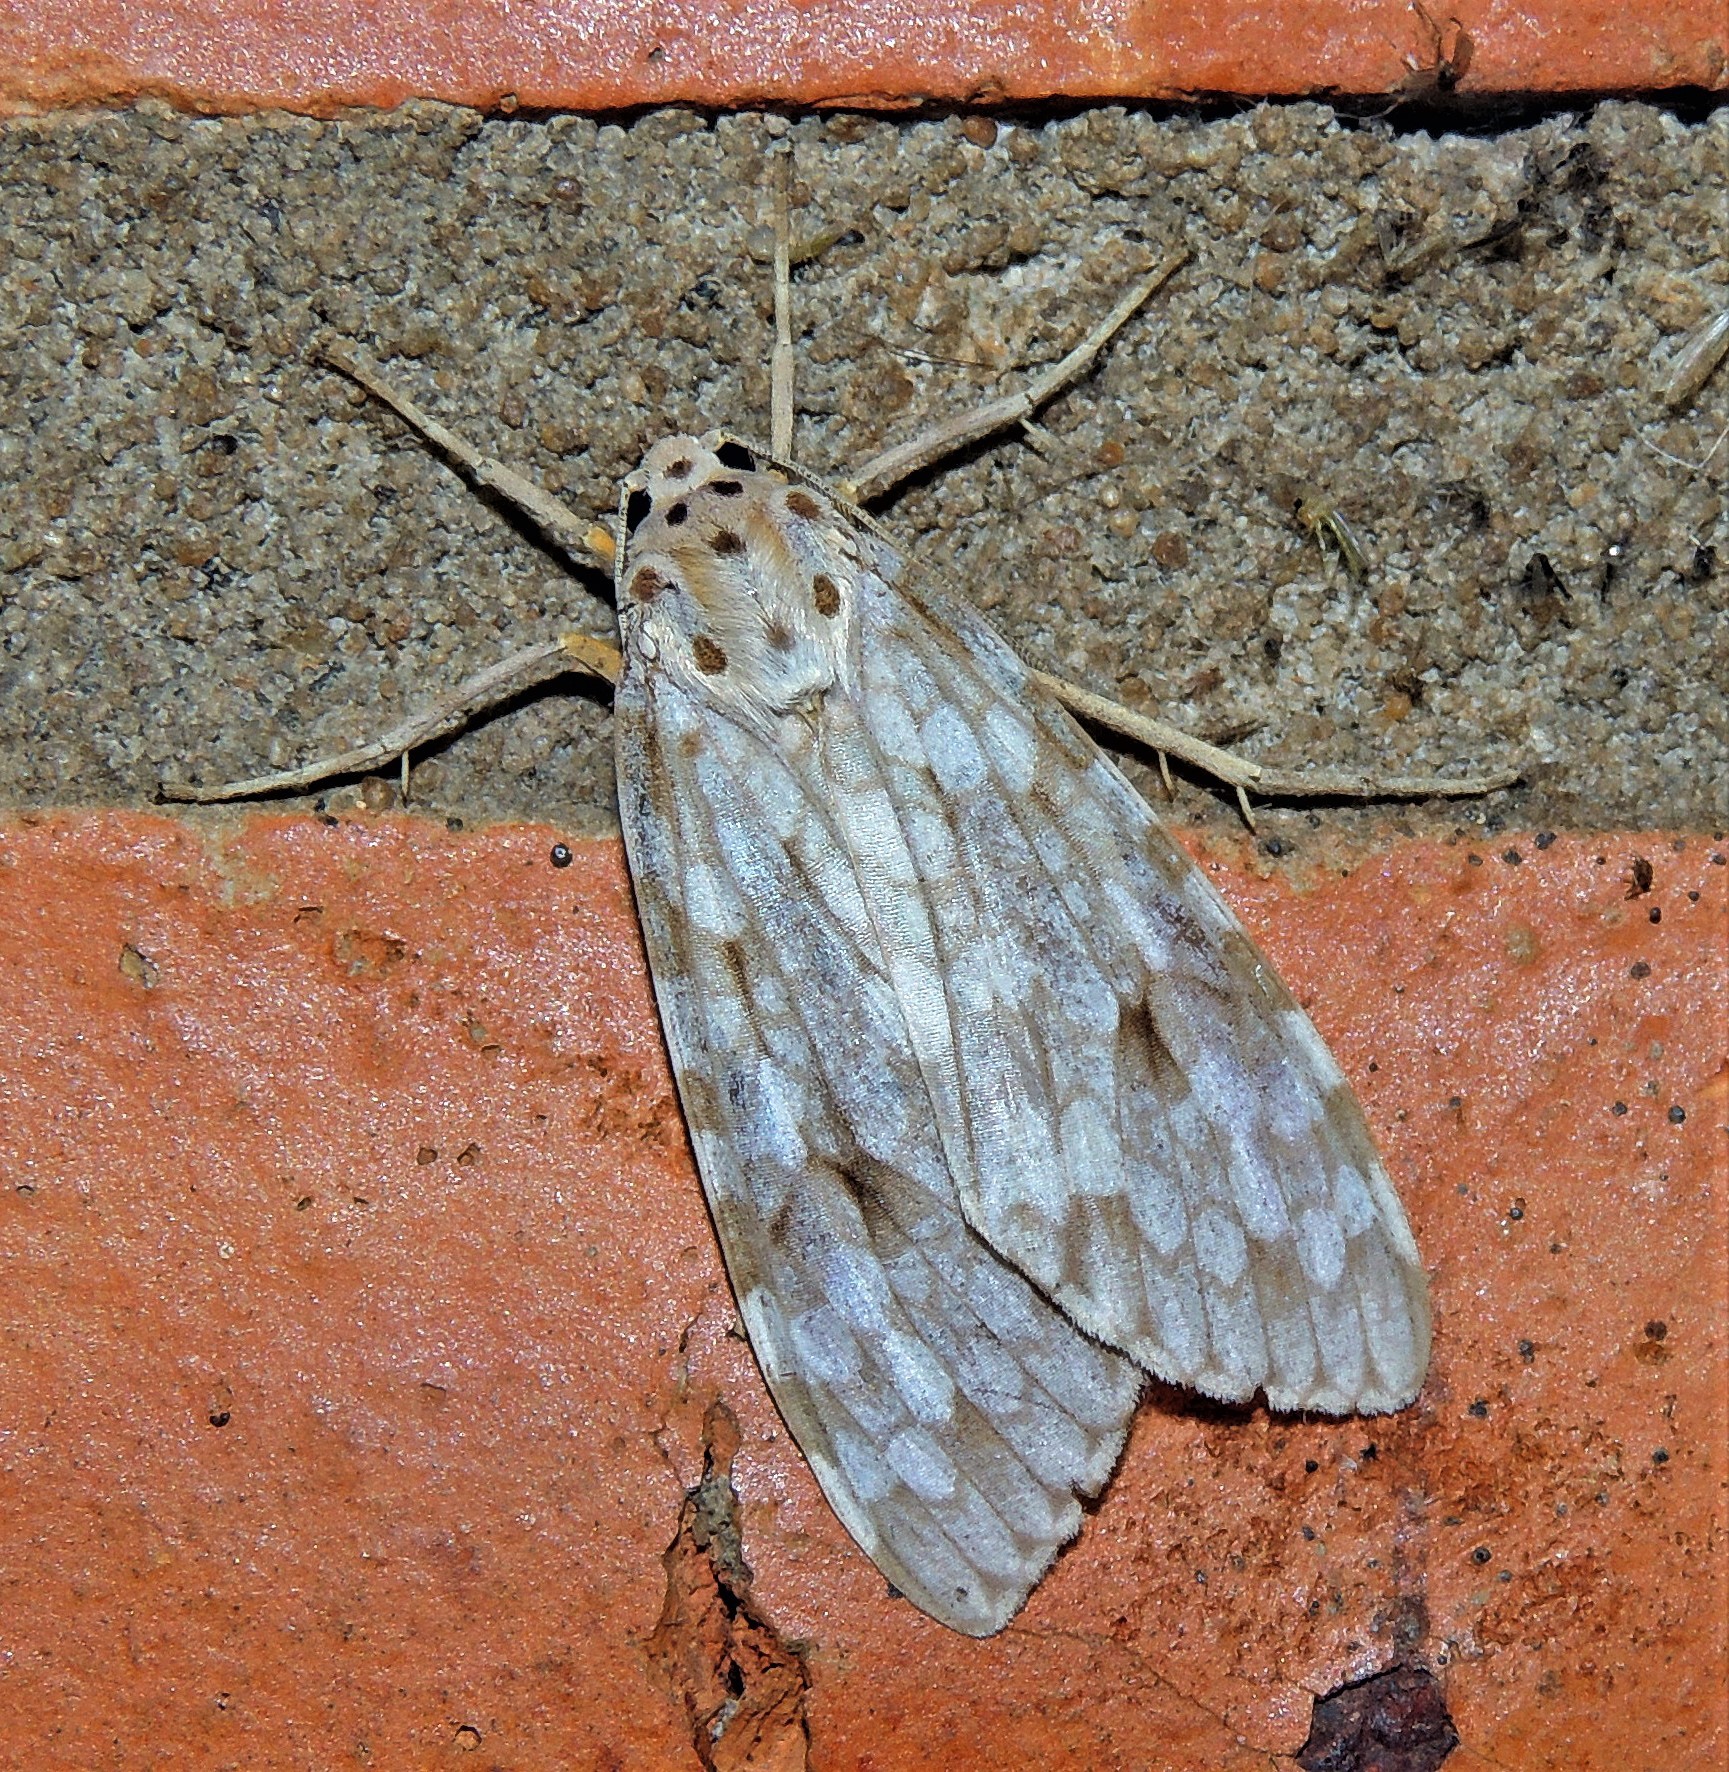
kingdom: Animalia
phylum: Arthropoda
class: Insecta
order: Lepidoptera
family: Erebidae
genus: Carales
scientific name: Carales astur
